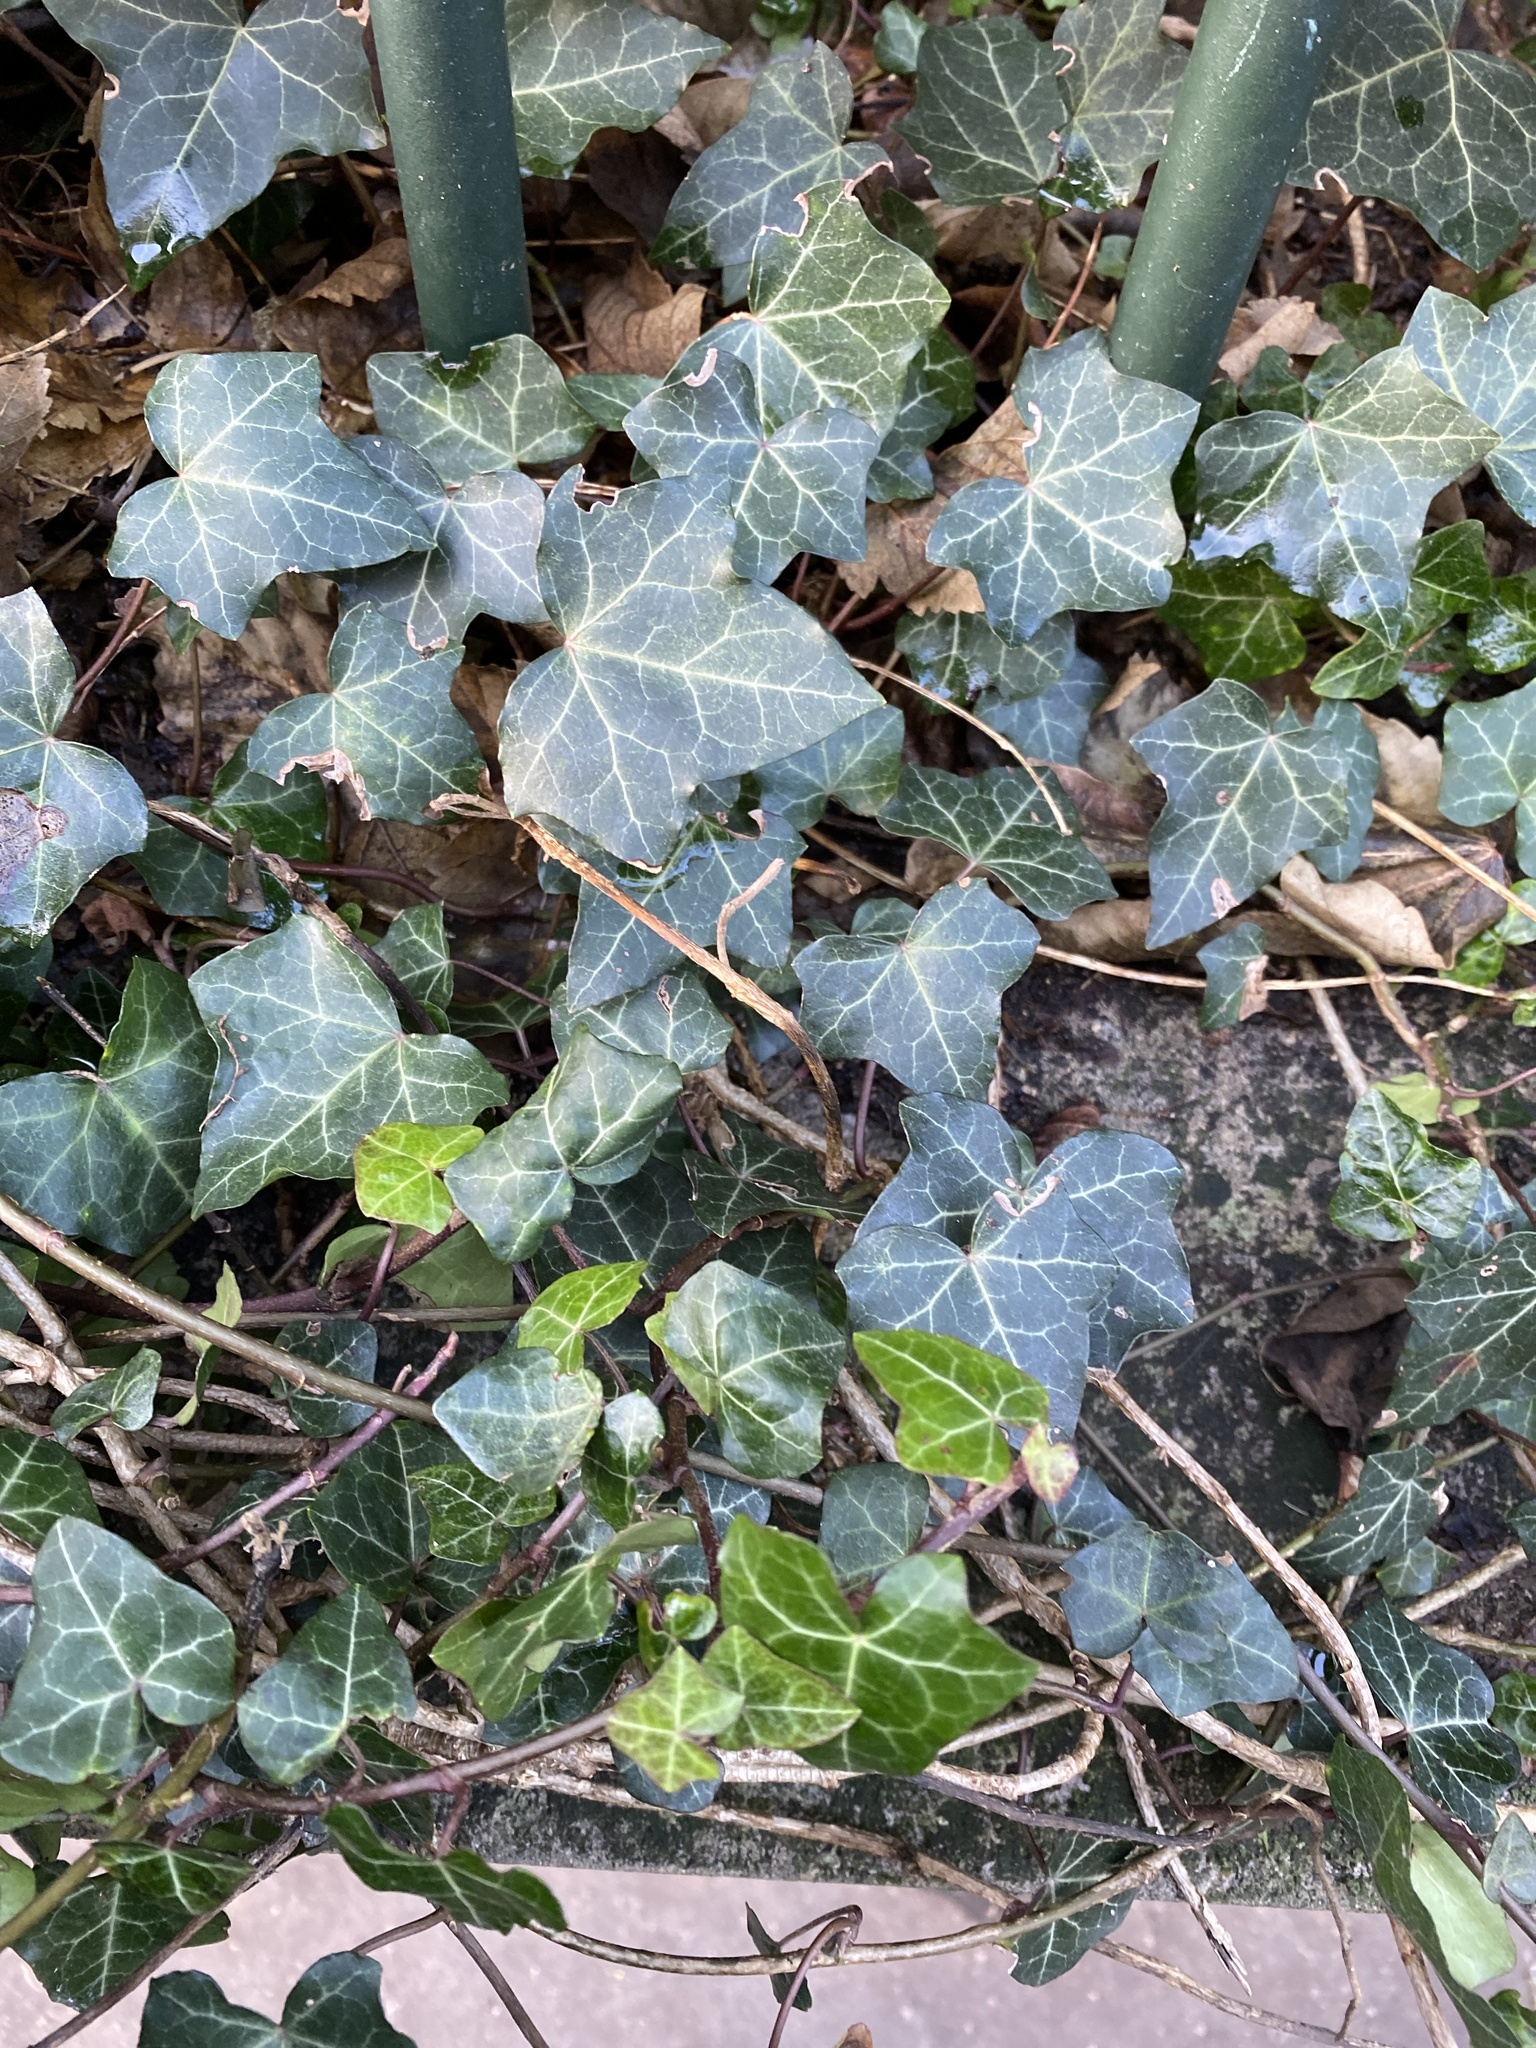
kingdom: Plantae
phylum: Tracheophyta
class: Magnoliopsida
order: Apiales
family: Araliaceae
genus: Hedera
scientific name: Hedera helix
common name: Ivy
